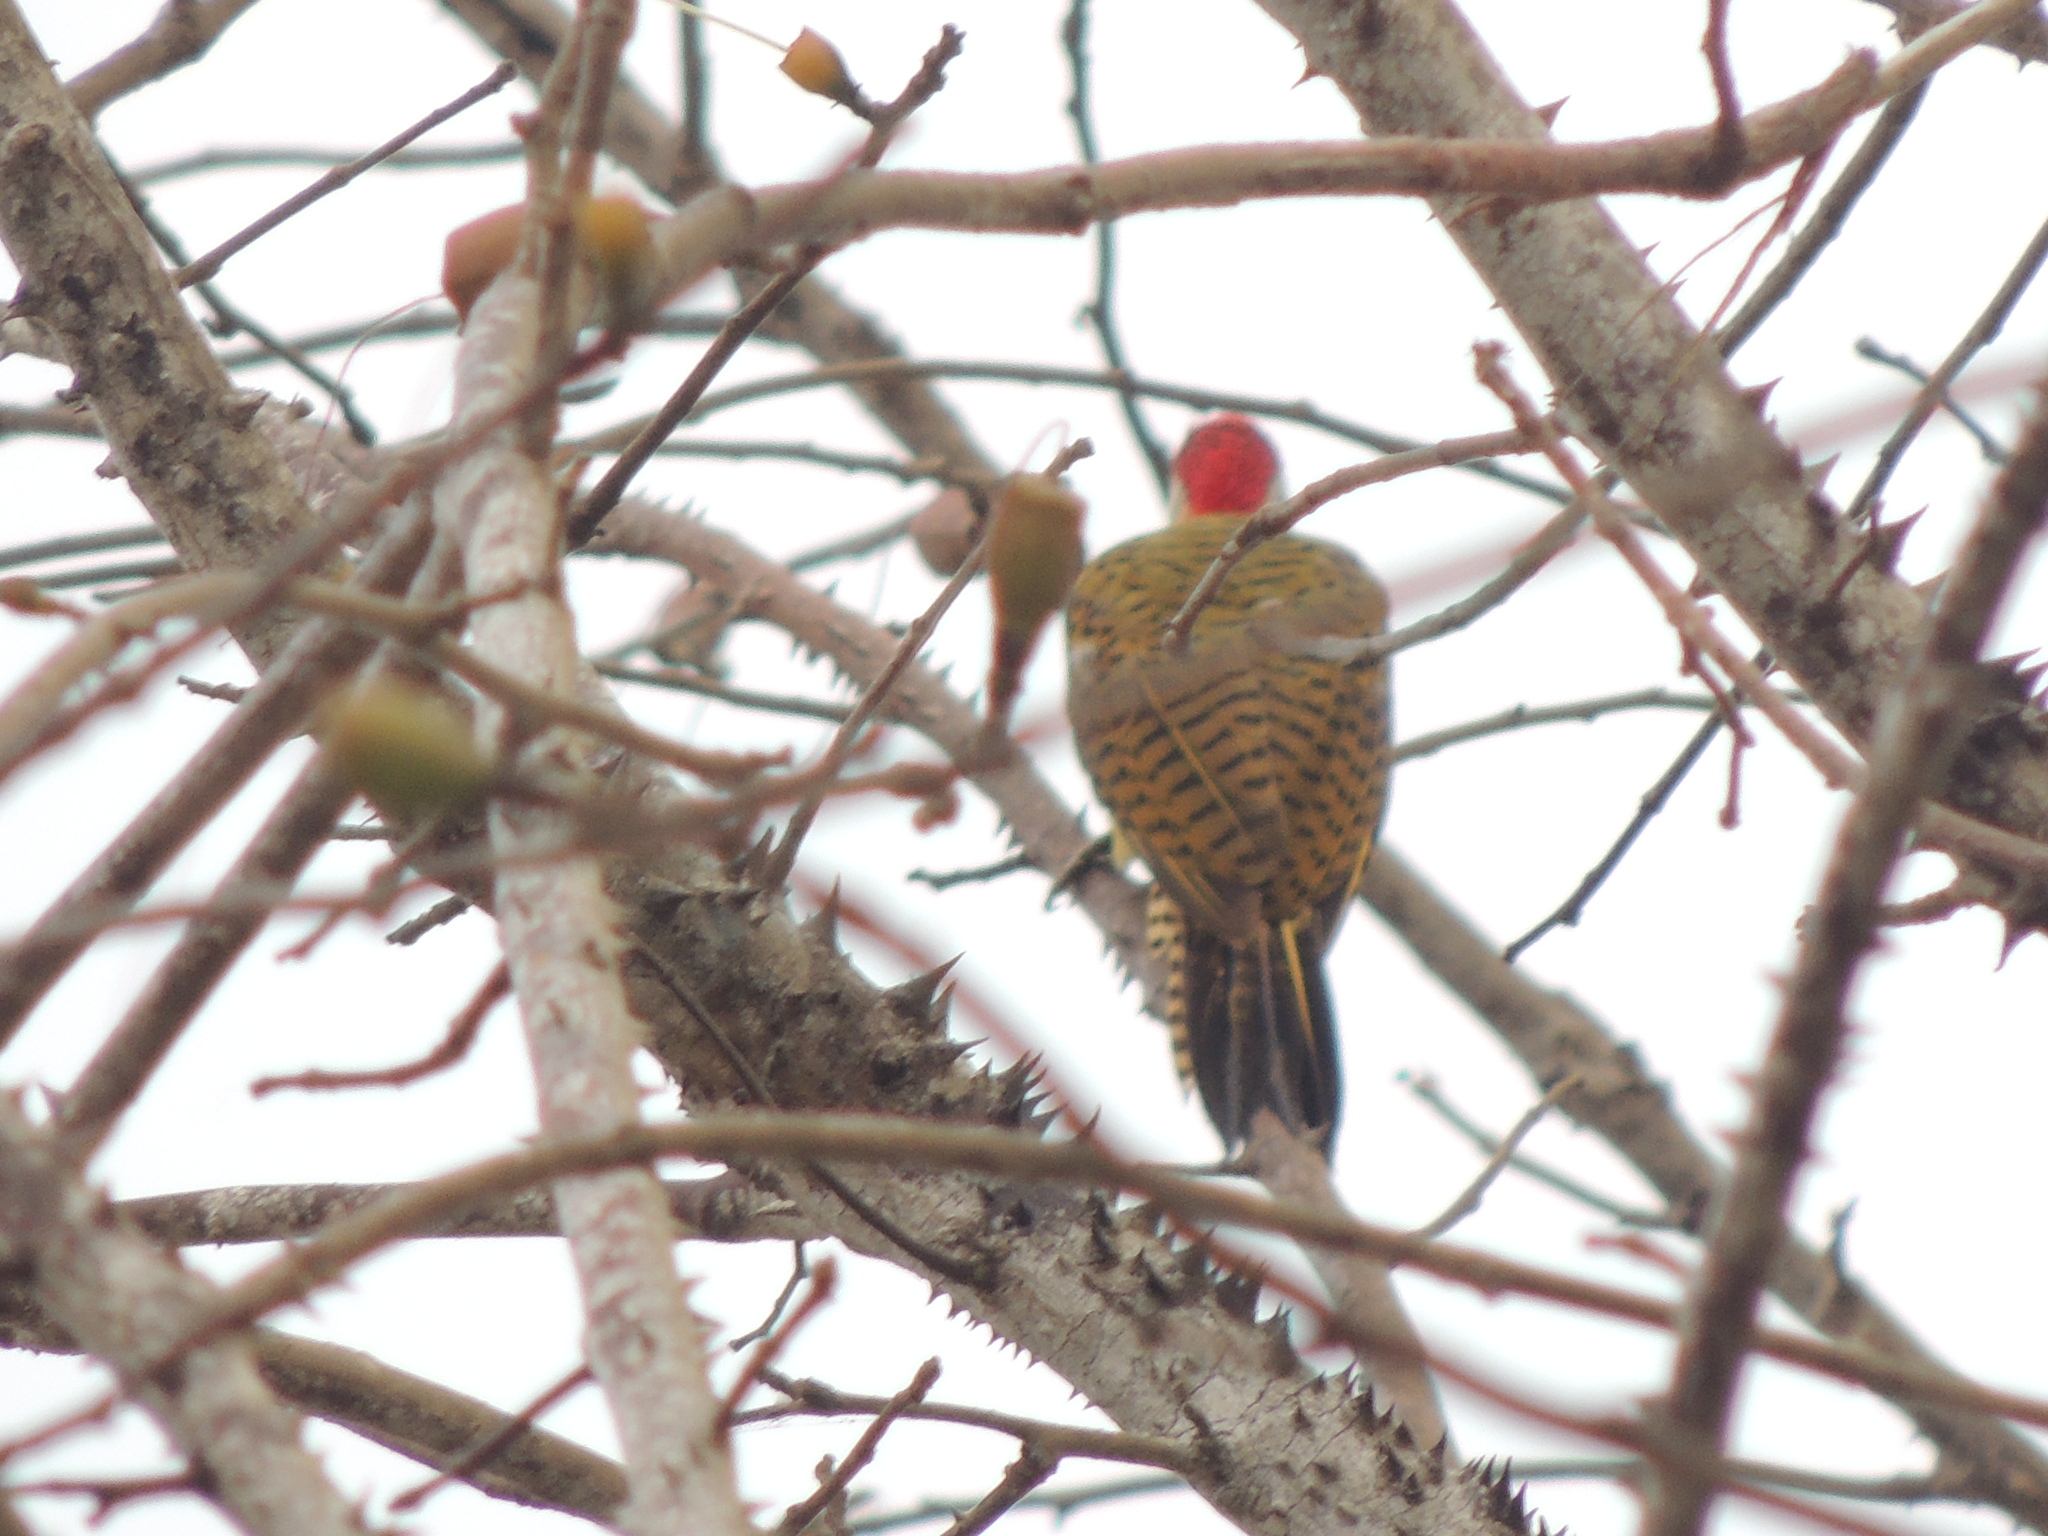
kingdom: Animalia
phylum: Chordata
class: Aves
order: Piciformes
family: Picidae
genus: Colaptes
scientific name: Colaptes punctigula
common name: Spot-breasted woodpecker
